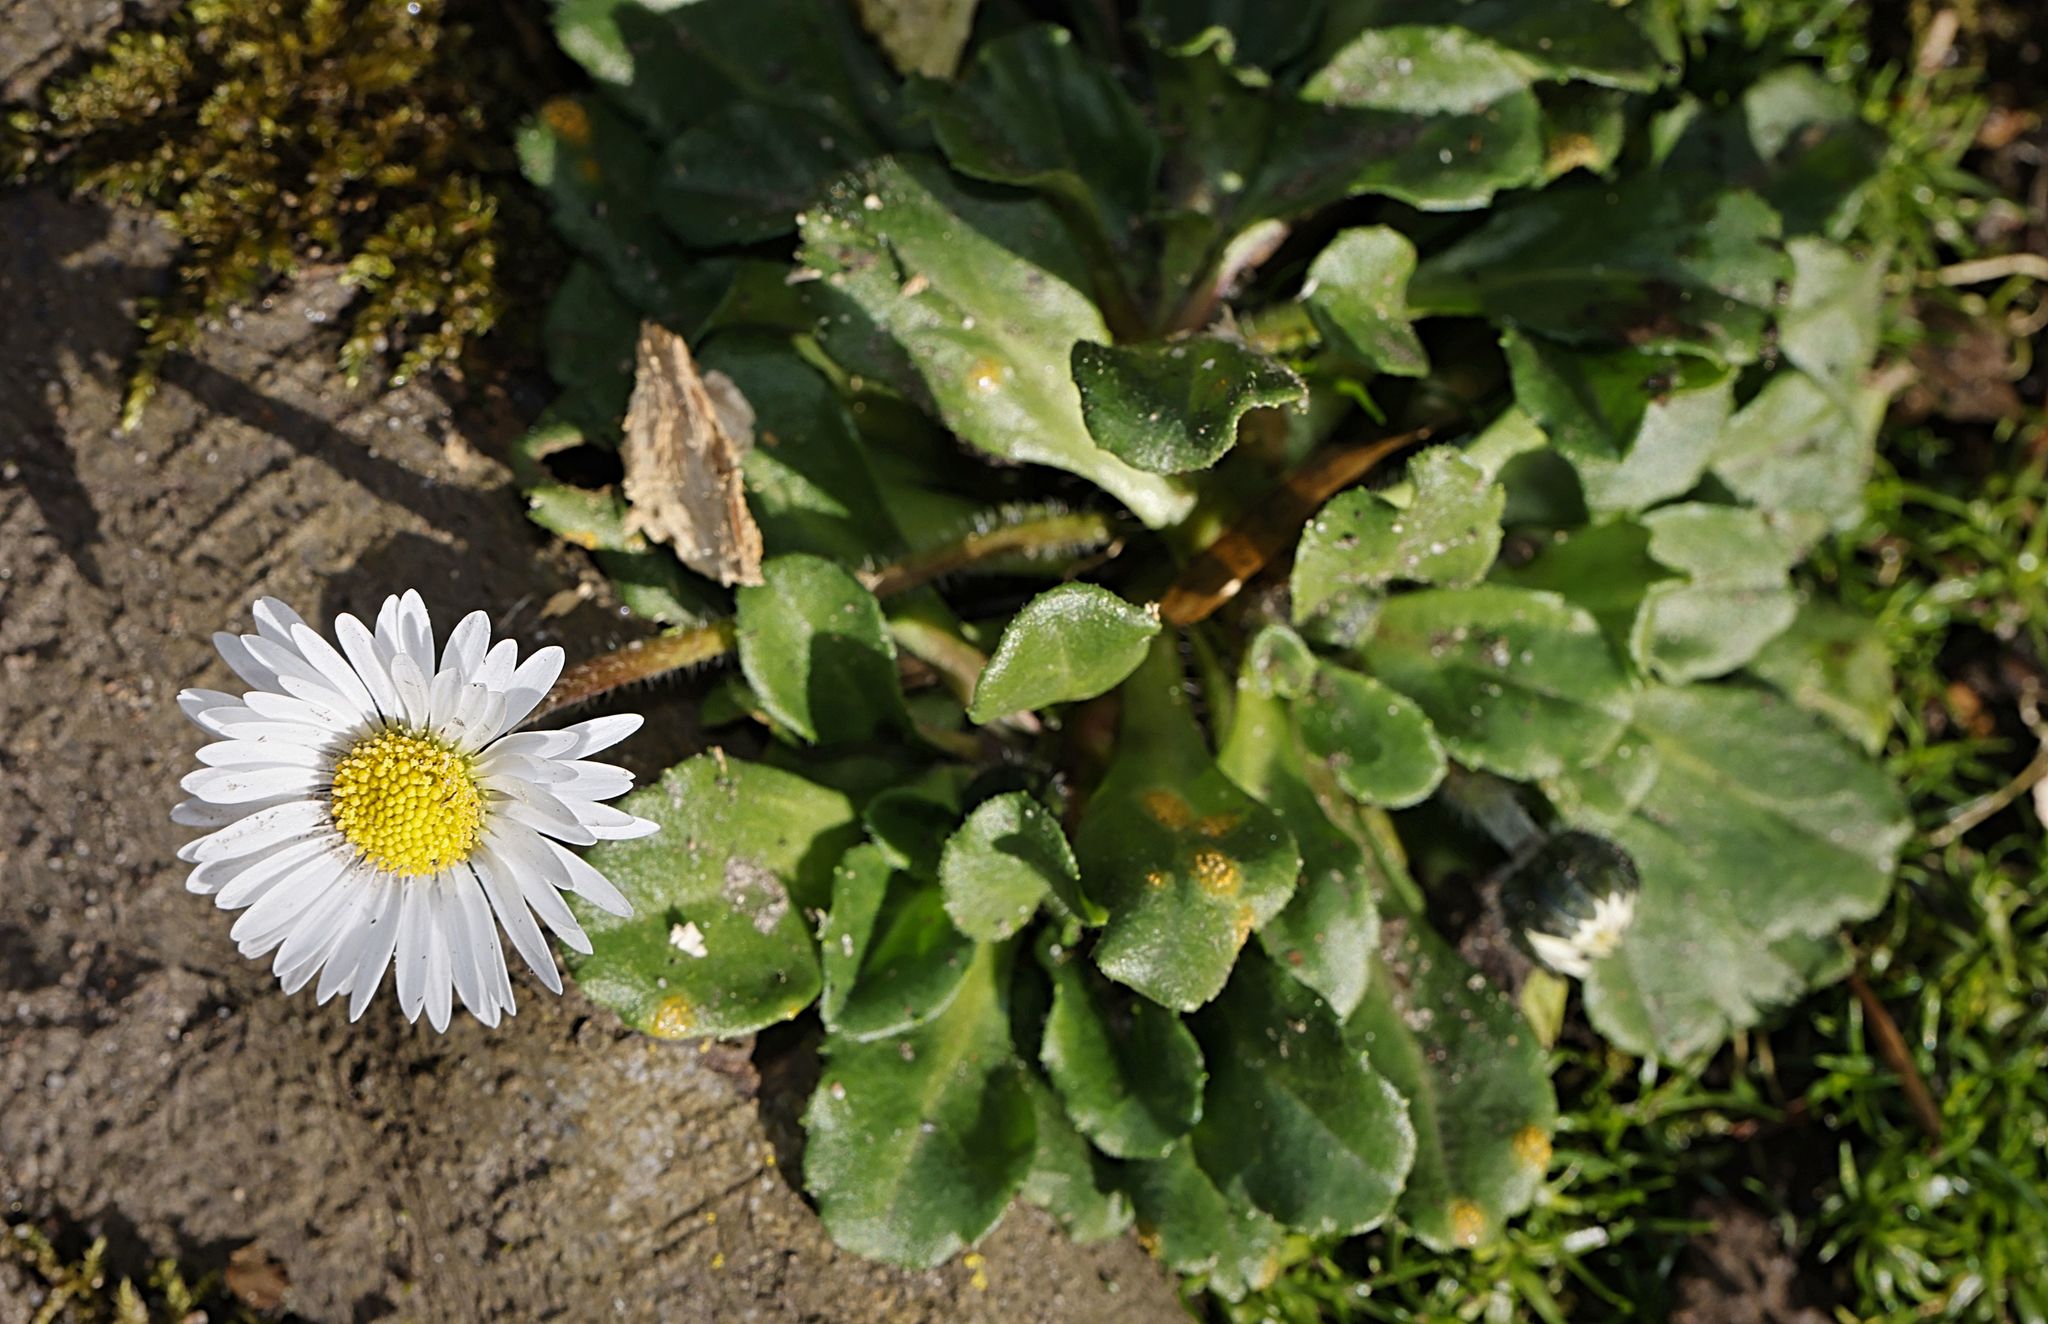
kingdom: Plantae
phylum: Tracheophyta
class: Magnoliopsida
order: Asterales
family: Asteraceae
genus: Bellis
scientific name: Bellis perennis
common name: Lawndaisy
